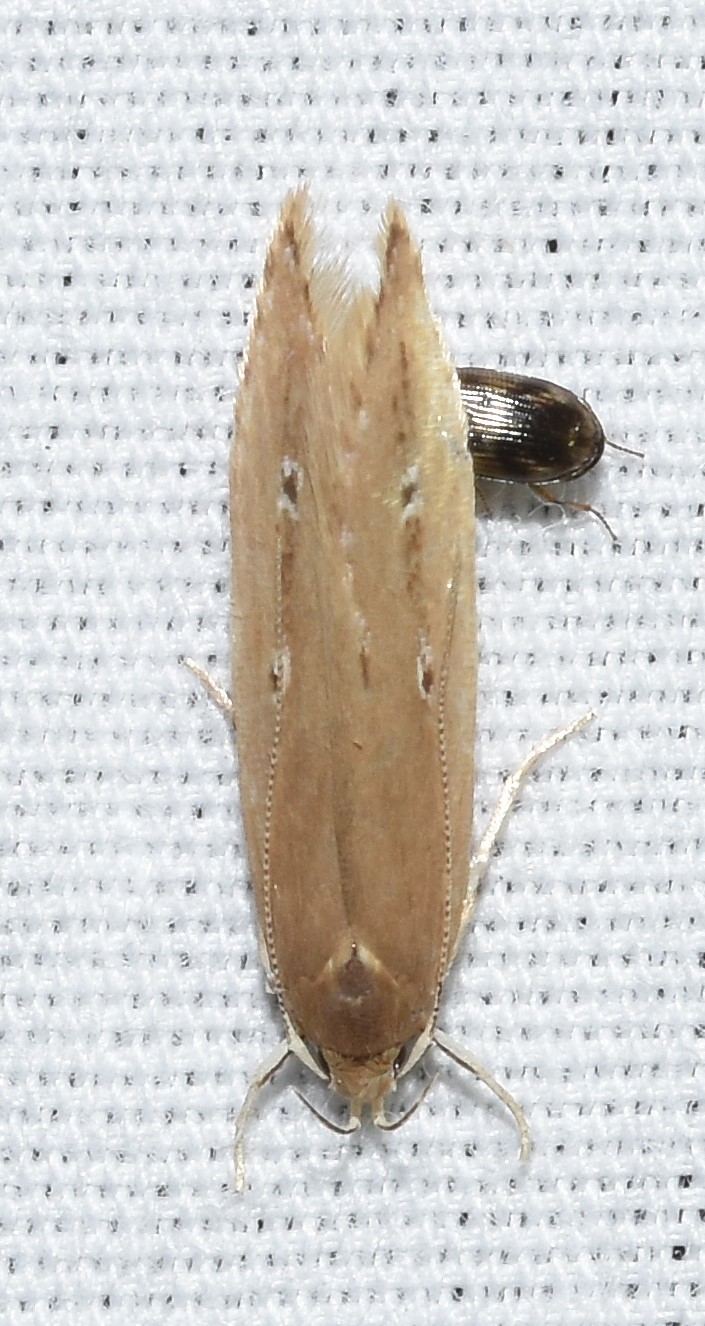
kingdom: Animalia
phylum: Arthropoda
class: Insecta
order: Lepidoptera
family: Cosmopterigidae
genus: Limnaecia
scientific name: Limnaecia phragmitella
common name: Bulrush cosmet
